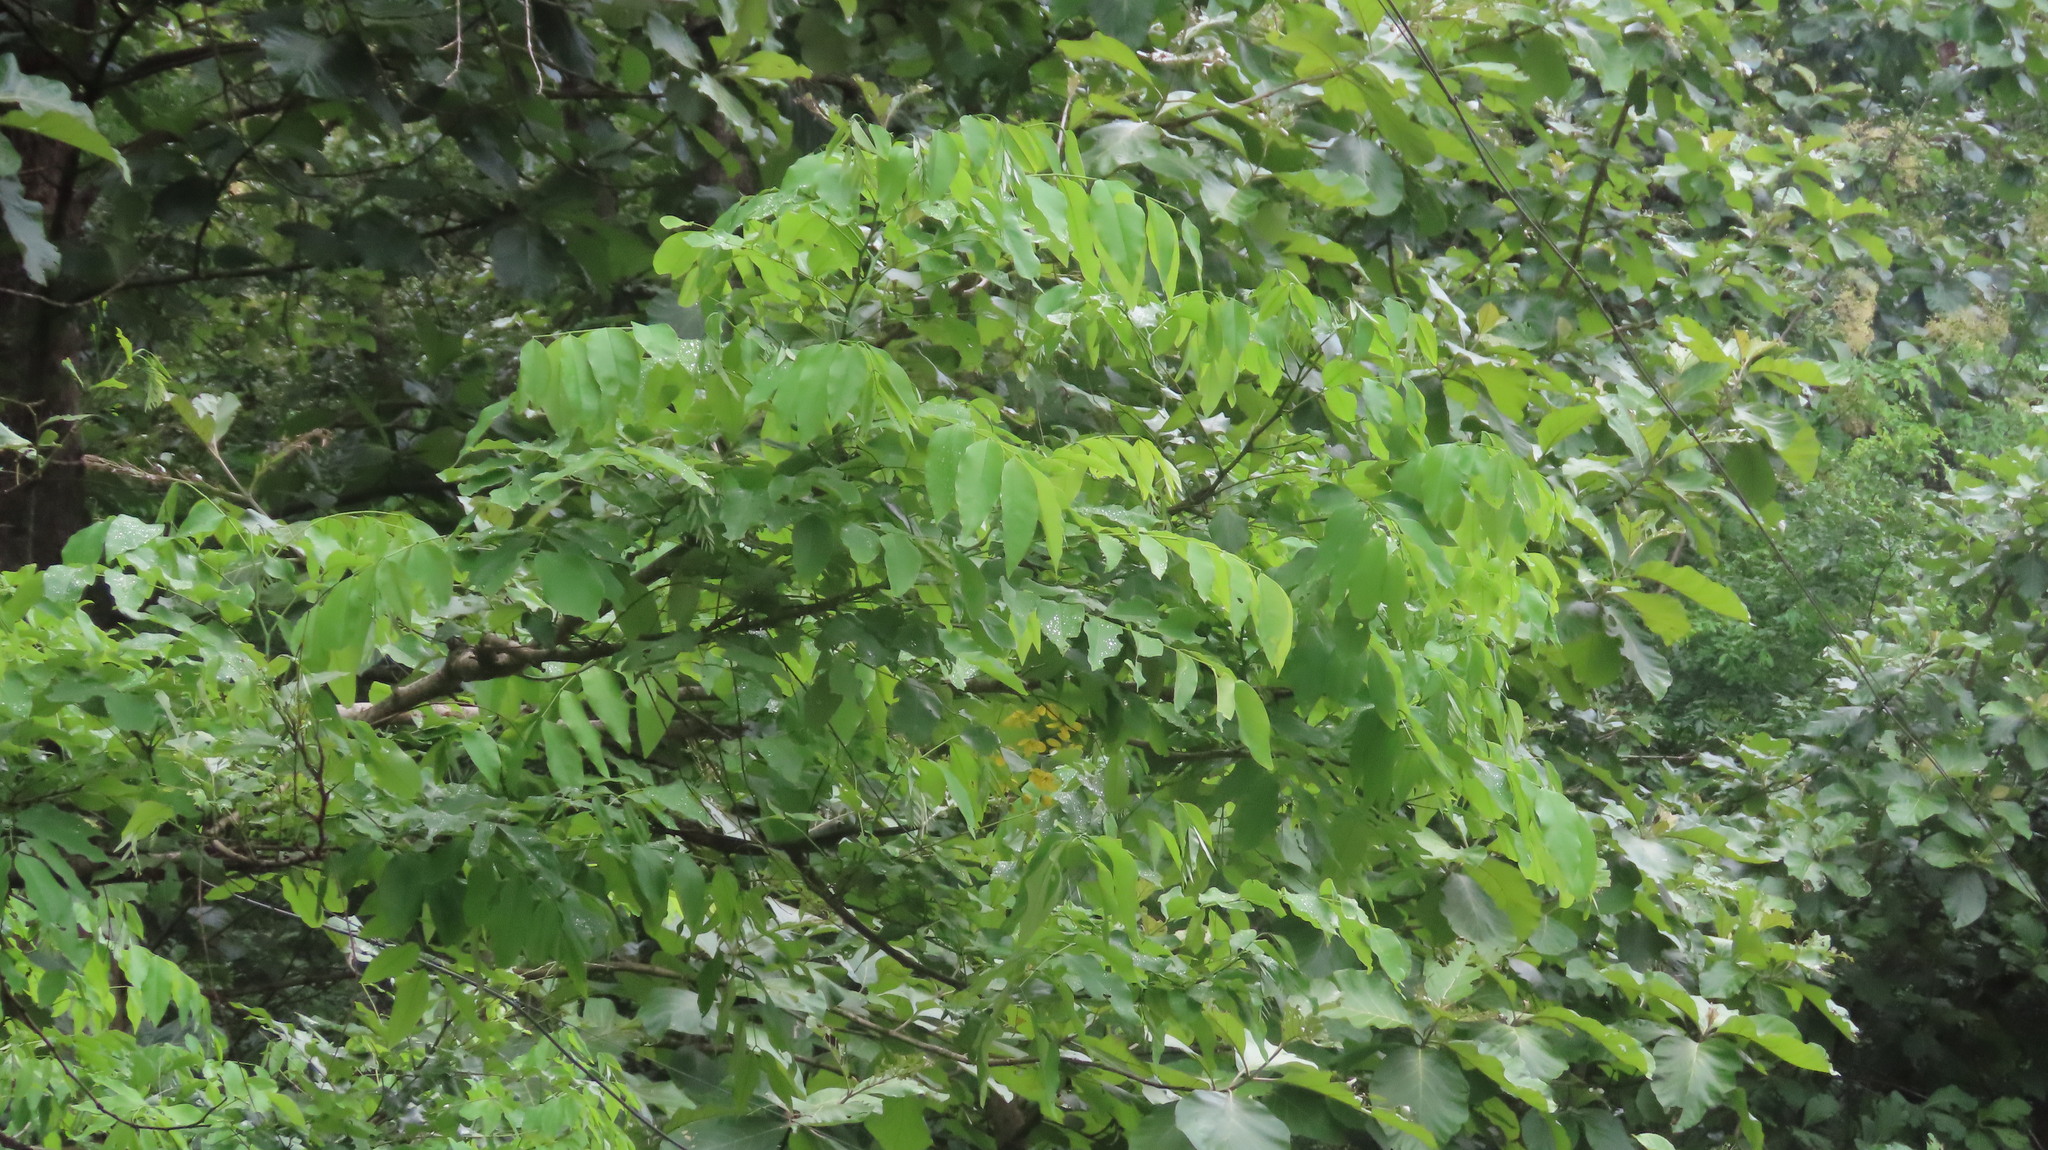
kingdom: Plantae
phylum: Tracheophyta
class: Magnoliopsida
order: Fabales
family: Fabaceae
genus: Cassia
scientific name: Cassia fistula
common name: Golden shower
